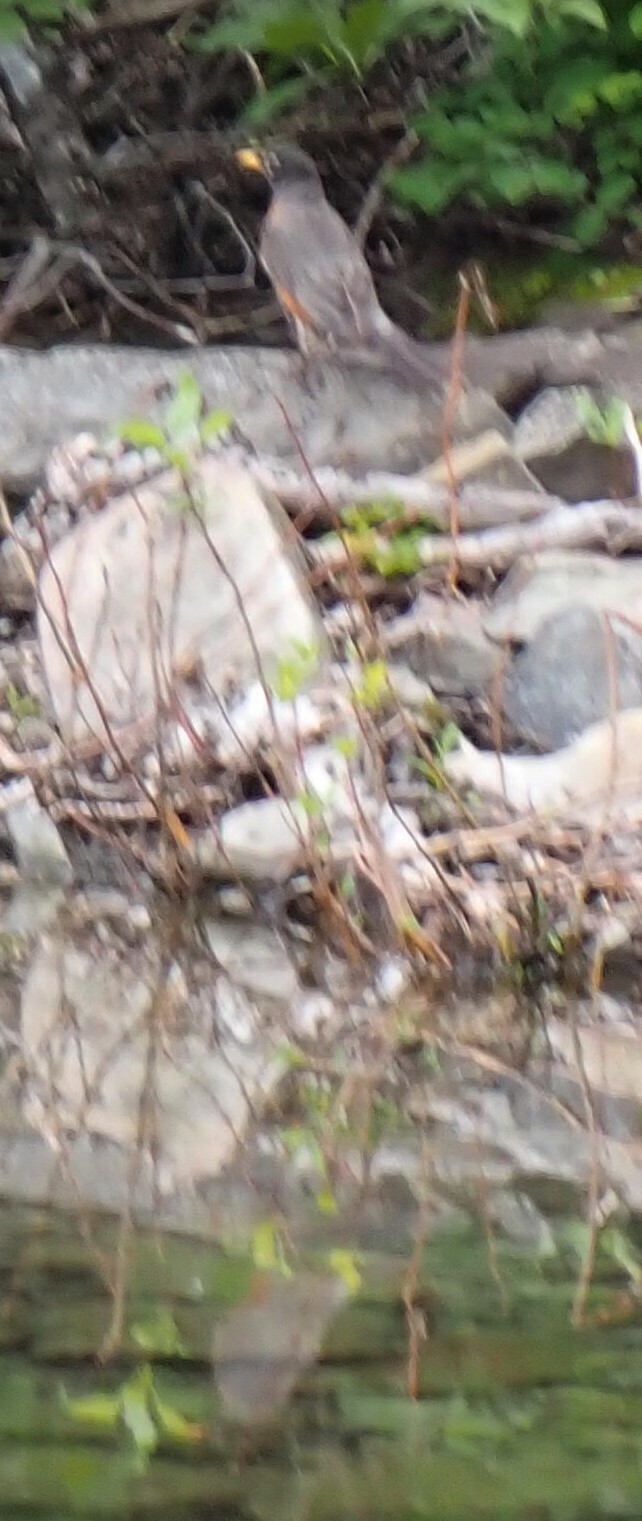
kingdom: Animalia
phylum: Chordata
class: Aves
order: Passeriformes
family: Turdidae
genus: Turdus
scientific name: Turdus migratorius
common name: American robin
